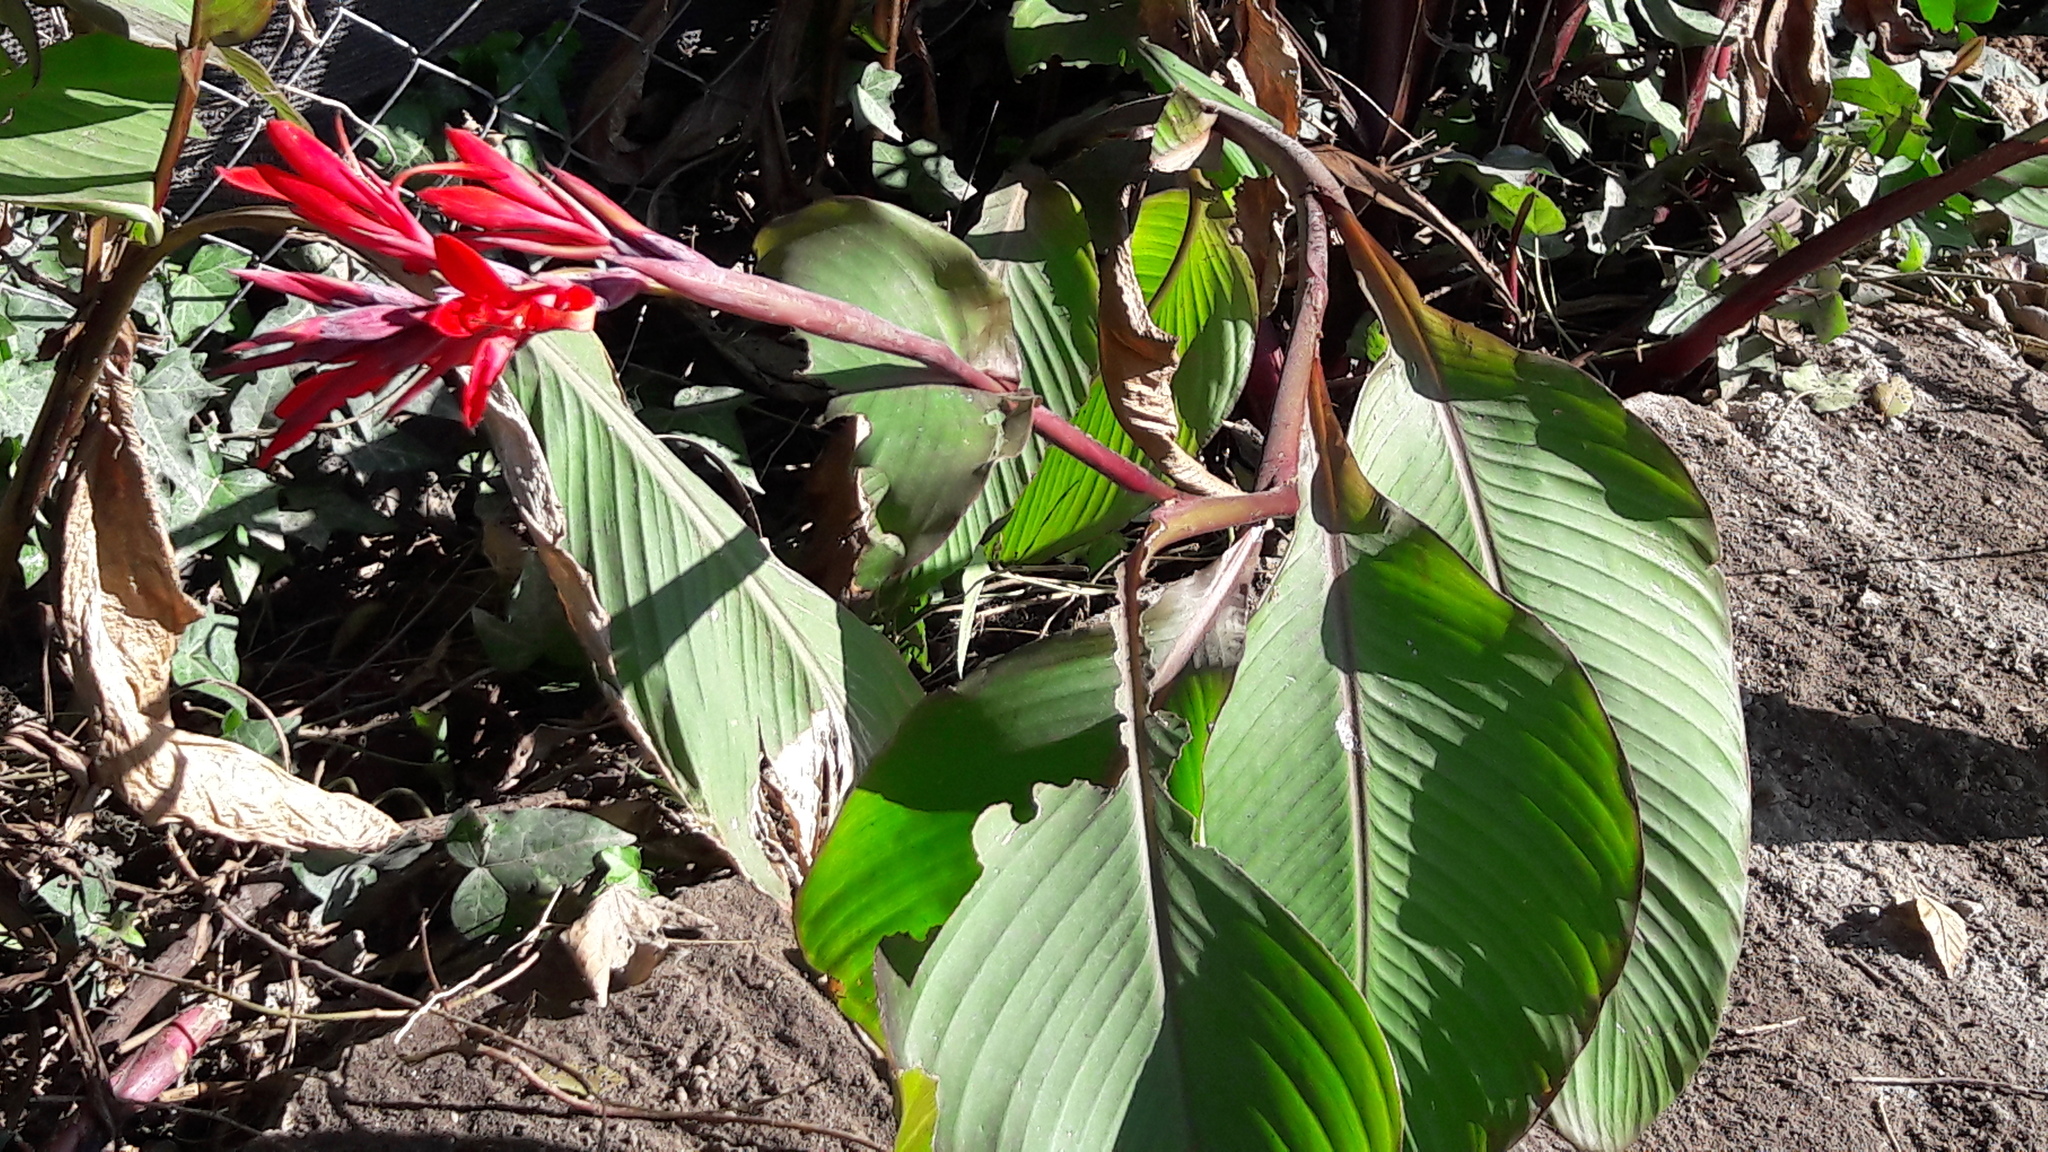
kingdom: Plantae
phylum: Tracheophyta
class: Liliopsida
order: Zingiberales
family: Cannaceae
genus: Canna
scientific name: Canna indica
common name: Indian shot
